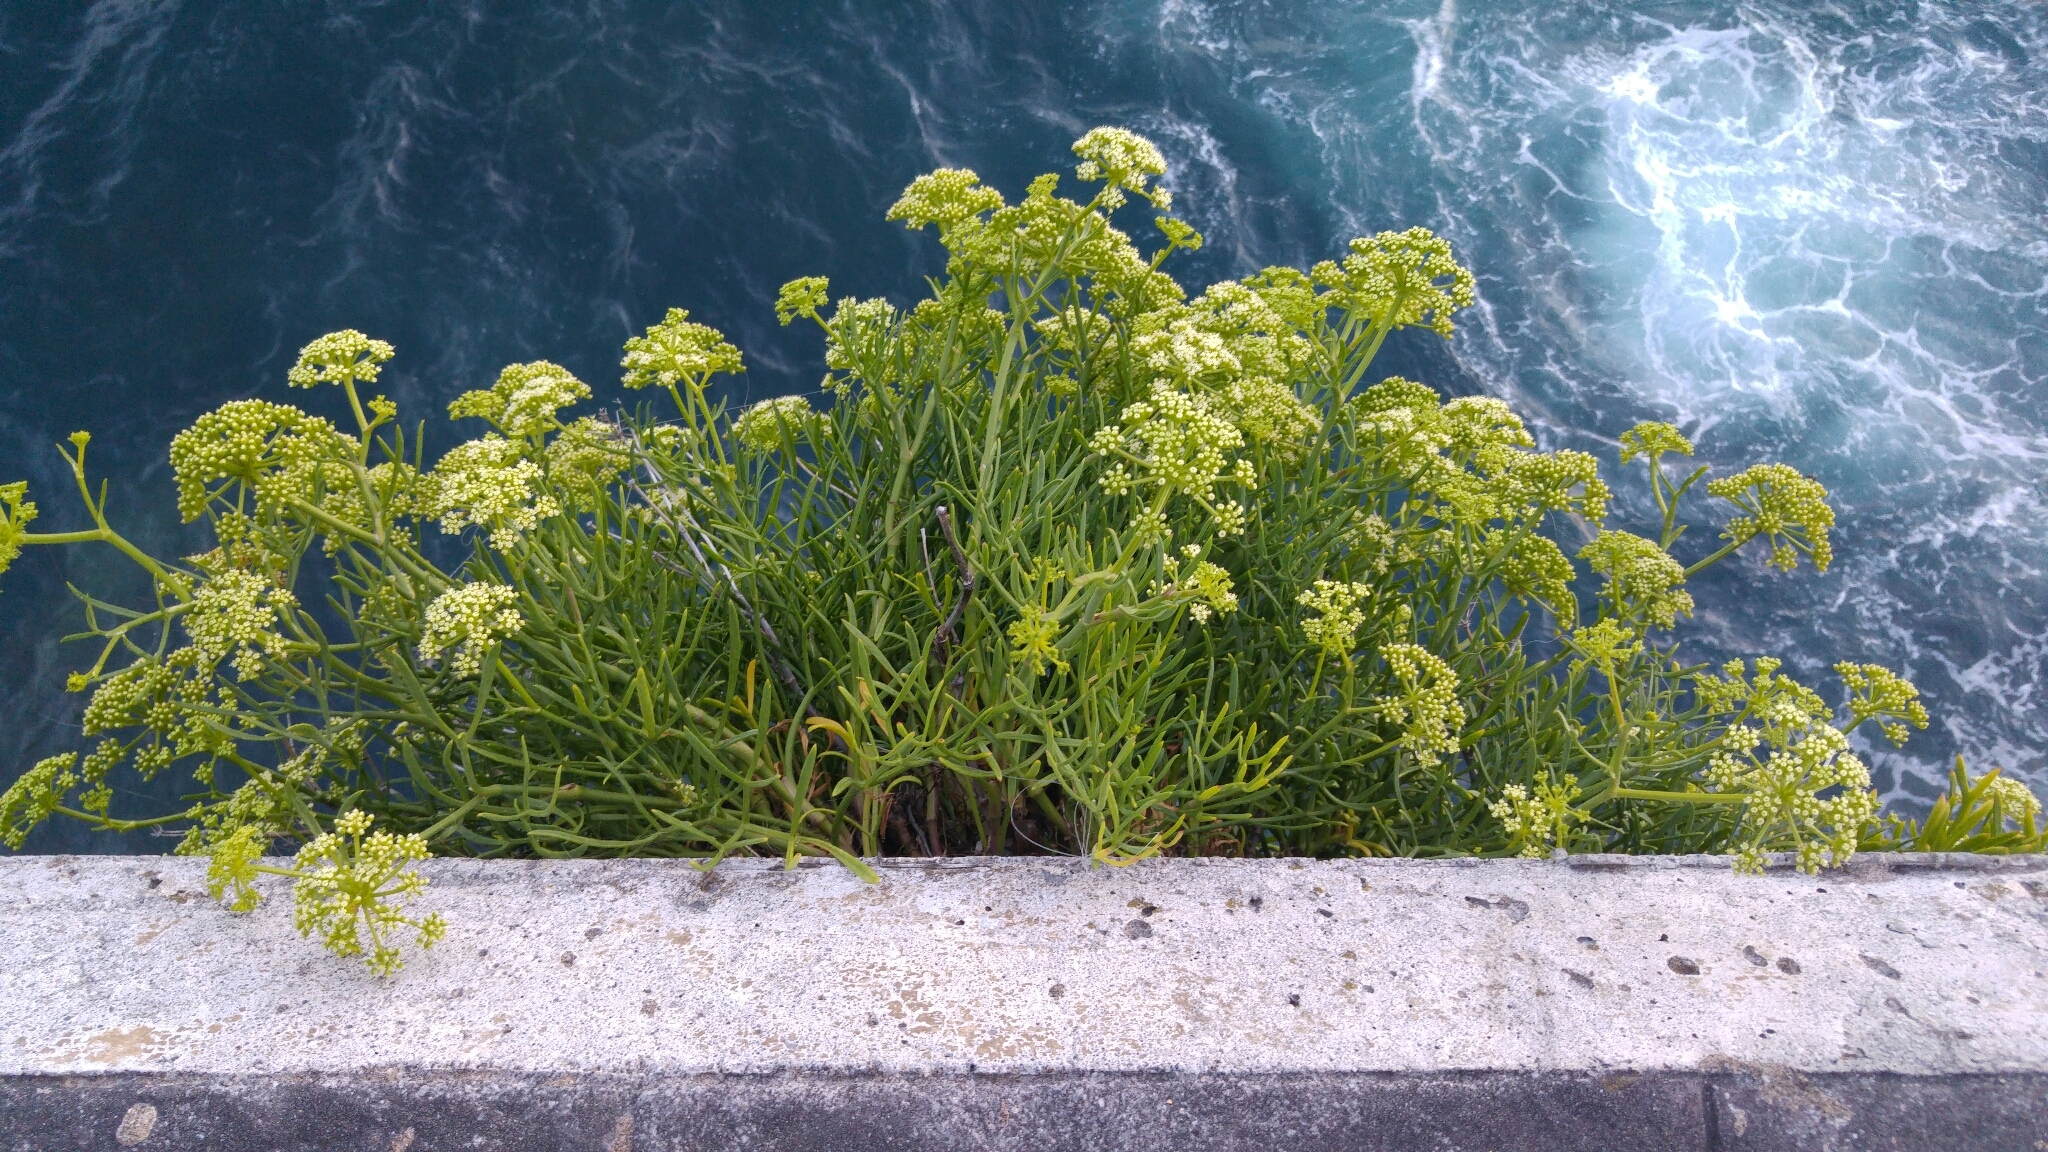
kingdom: Plantae
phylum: Tracheophyta
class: Magnoliopsida
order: Apiales
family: Apiaceae
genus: Crithmum
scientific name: Crithmum maritimum
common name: Rock samphire
